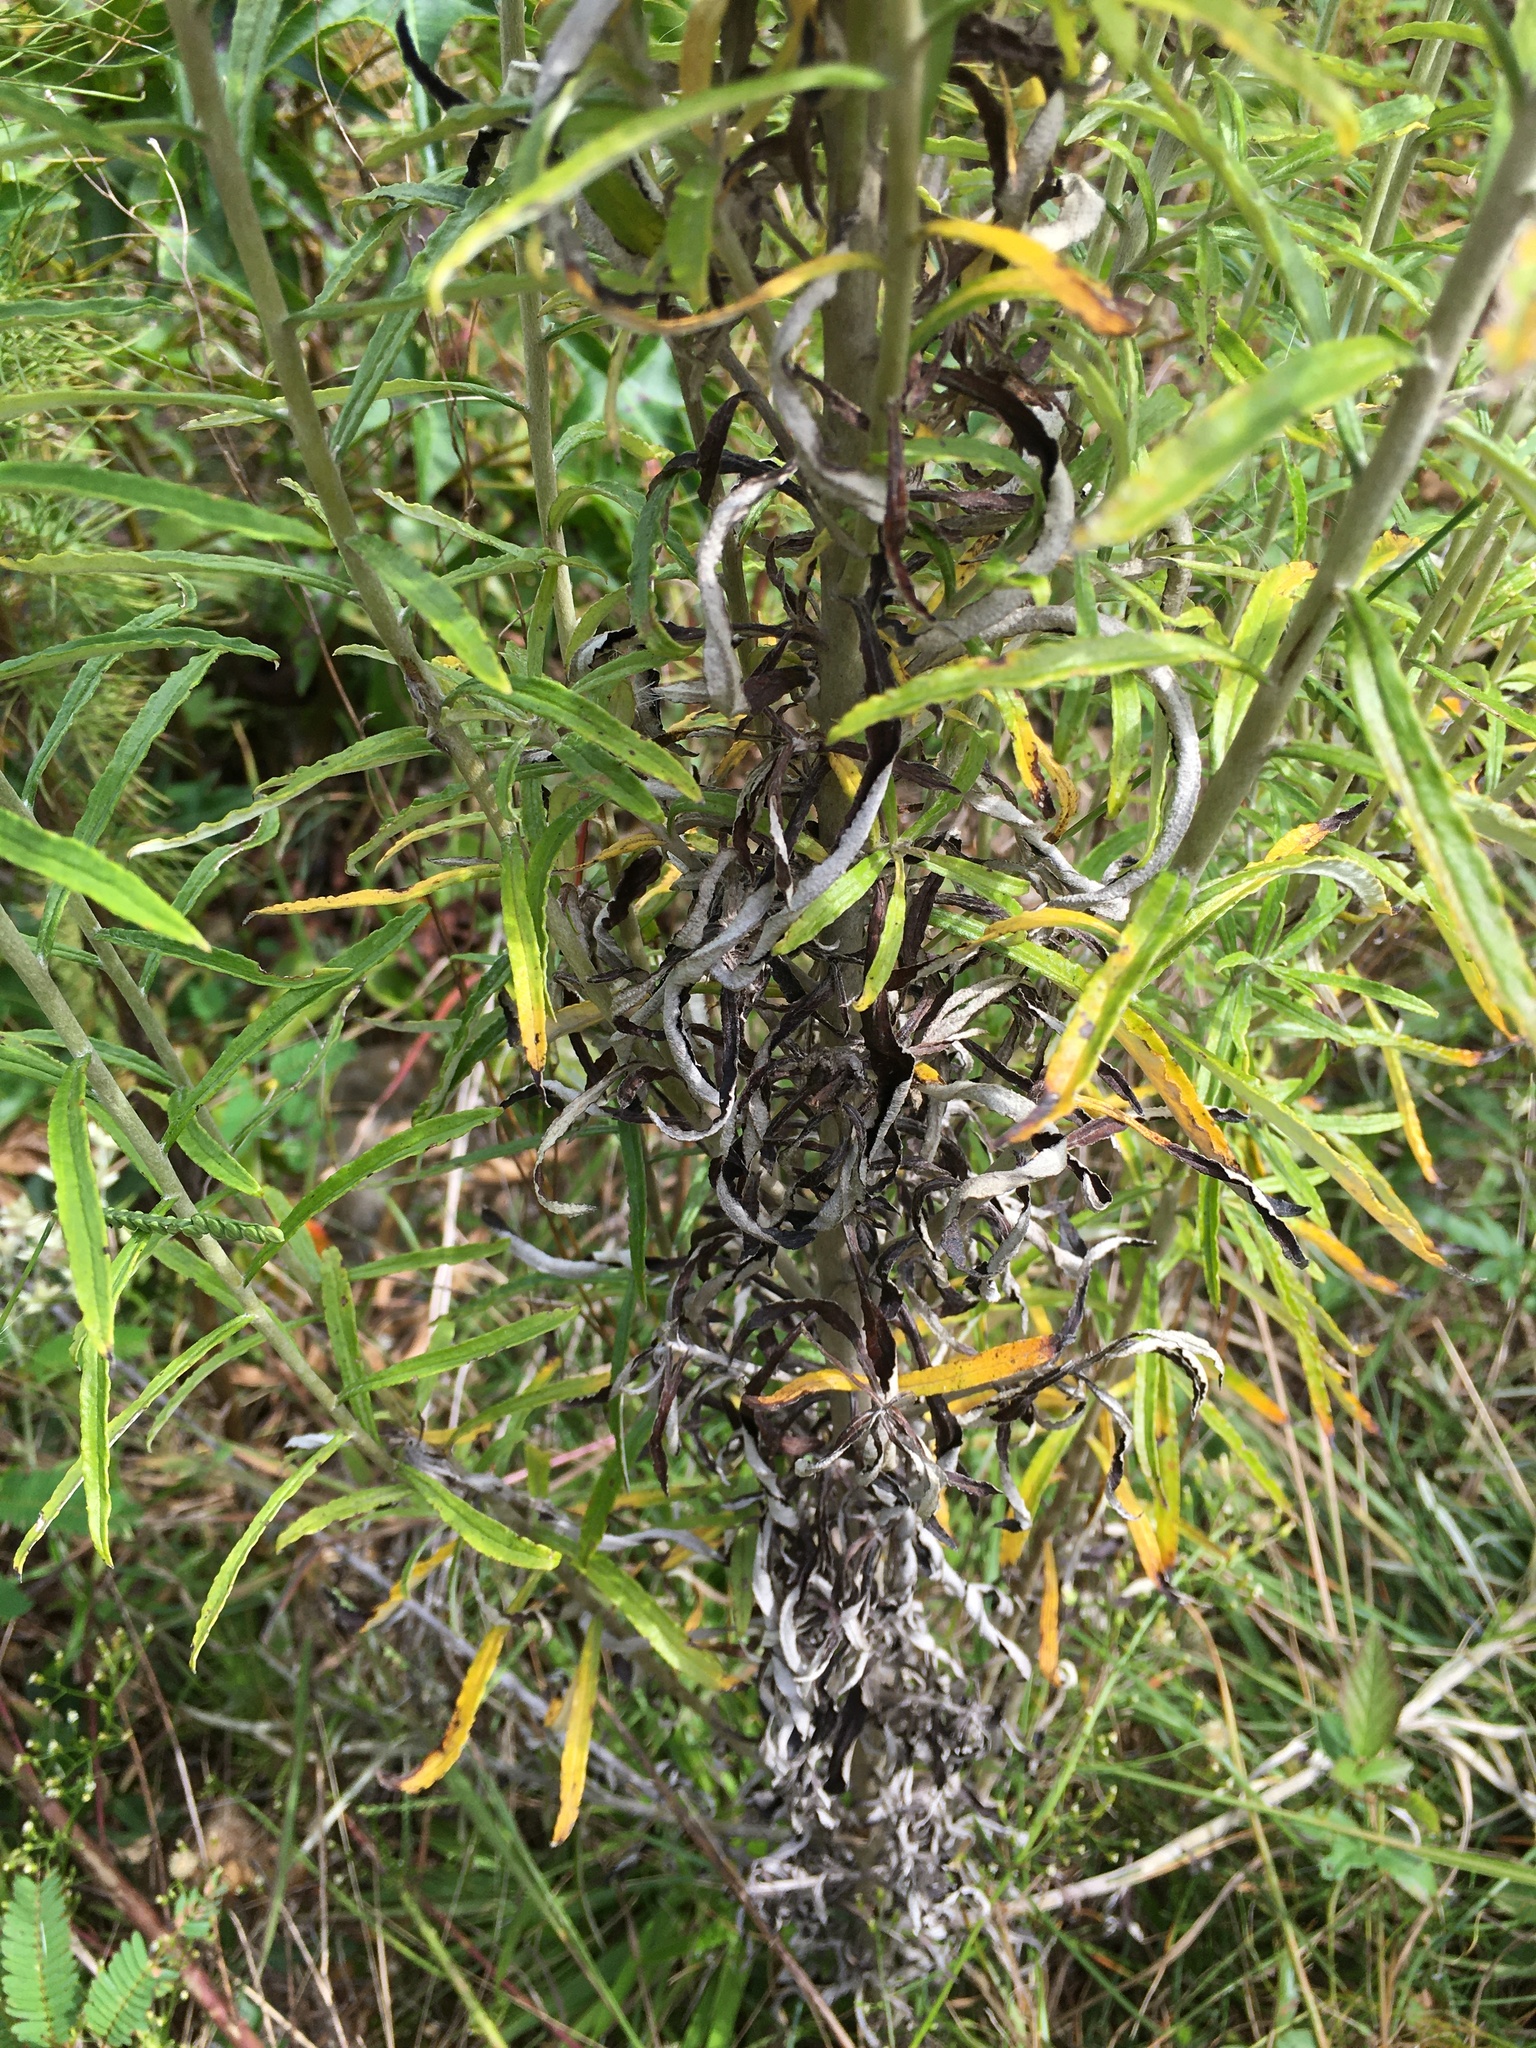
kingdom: Plantae
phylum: Tracheophyta
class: Magnoliopsida
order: Asterales
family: Asteraceae
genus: Pseudognaphalium
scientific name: Pseudognaphalium obtusifolium
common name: Eastern rabbit-tobacco
